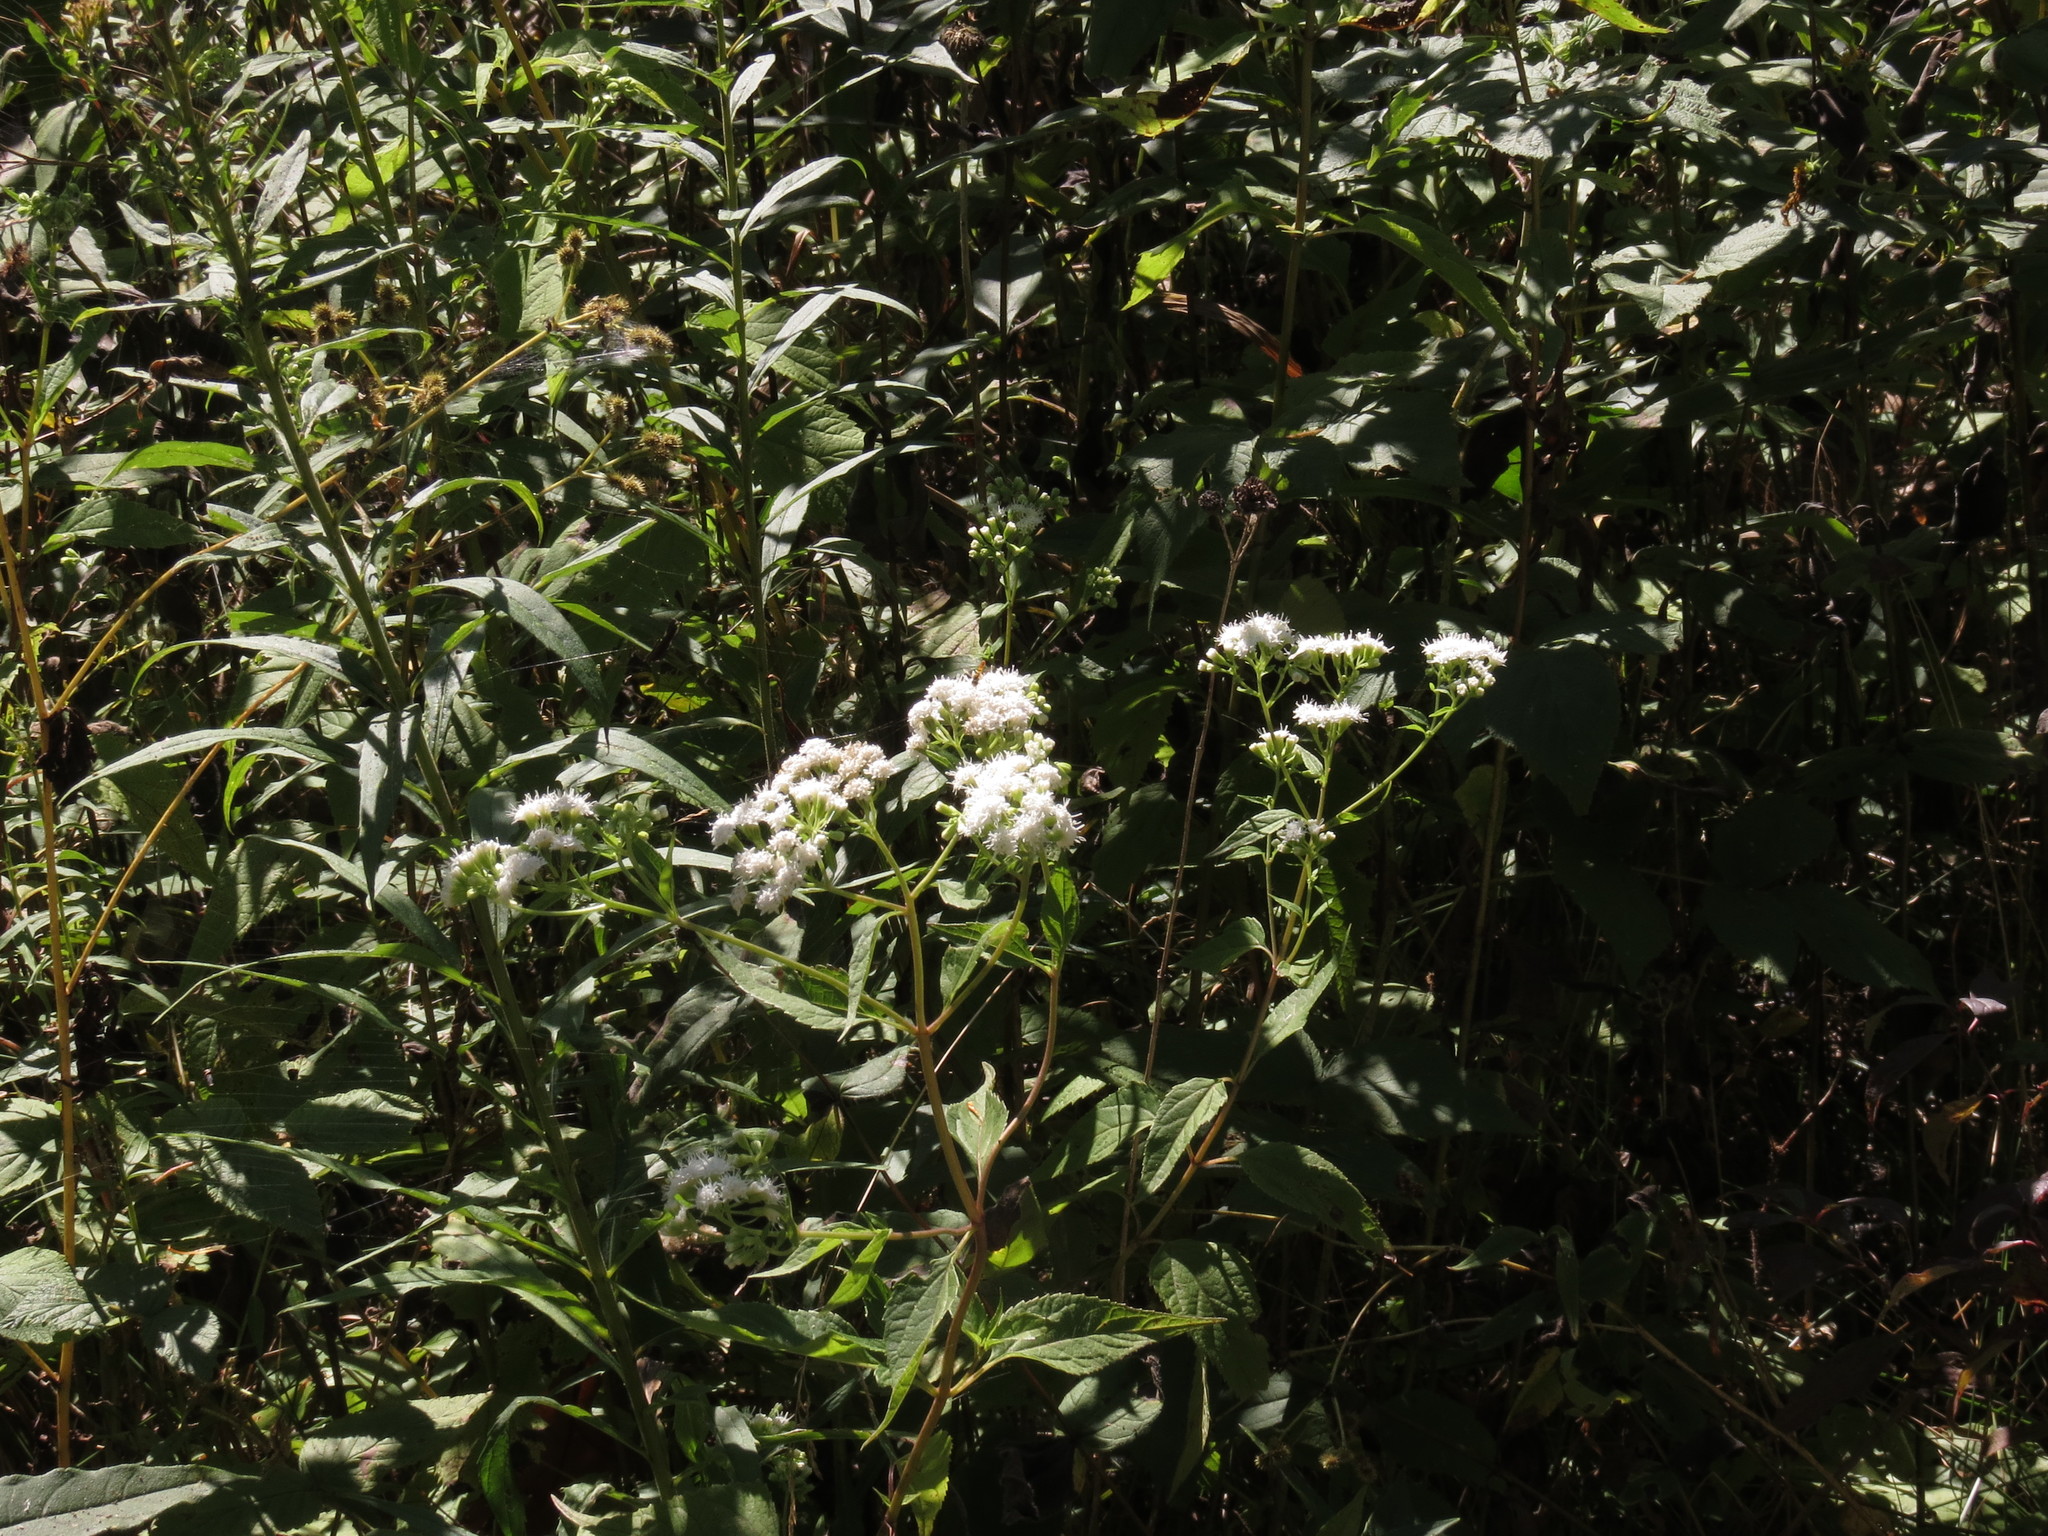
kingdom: Plantae
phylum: Tracheophyta
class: Magnoliopsida
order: Asterales
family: Asteraceae
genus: Ageratina
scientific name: Ageratina altissima
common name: White snakeroot
